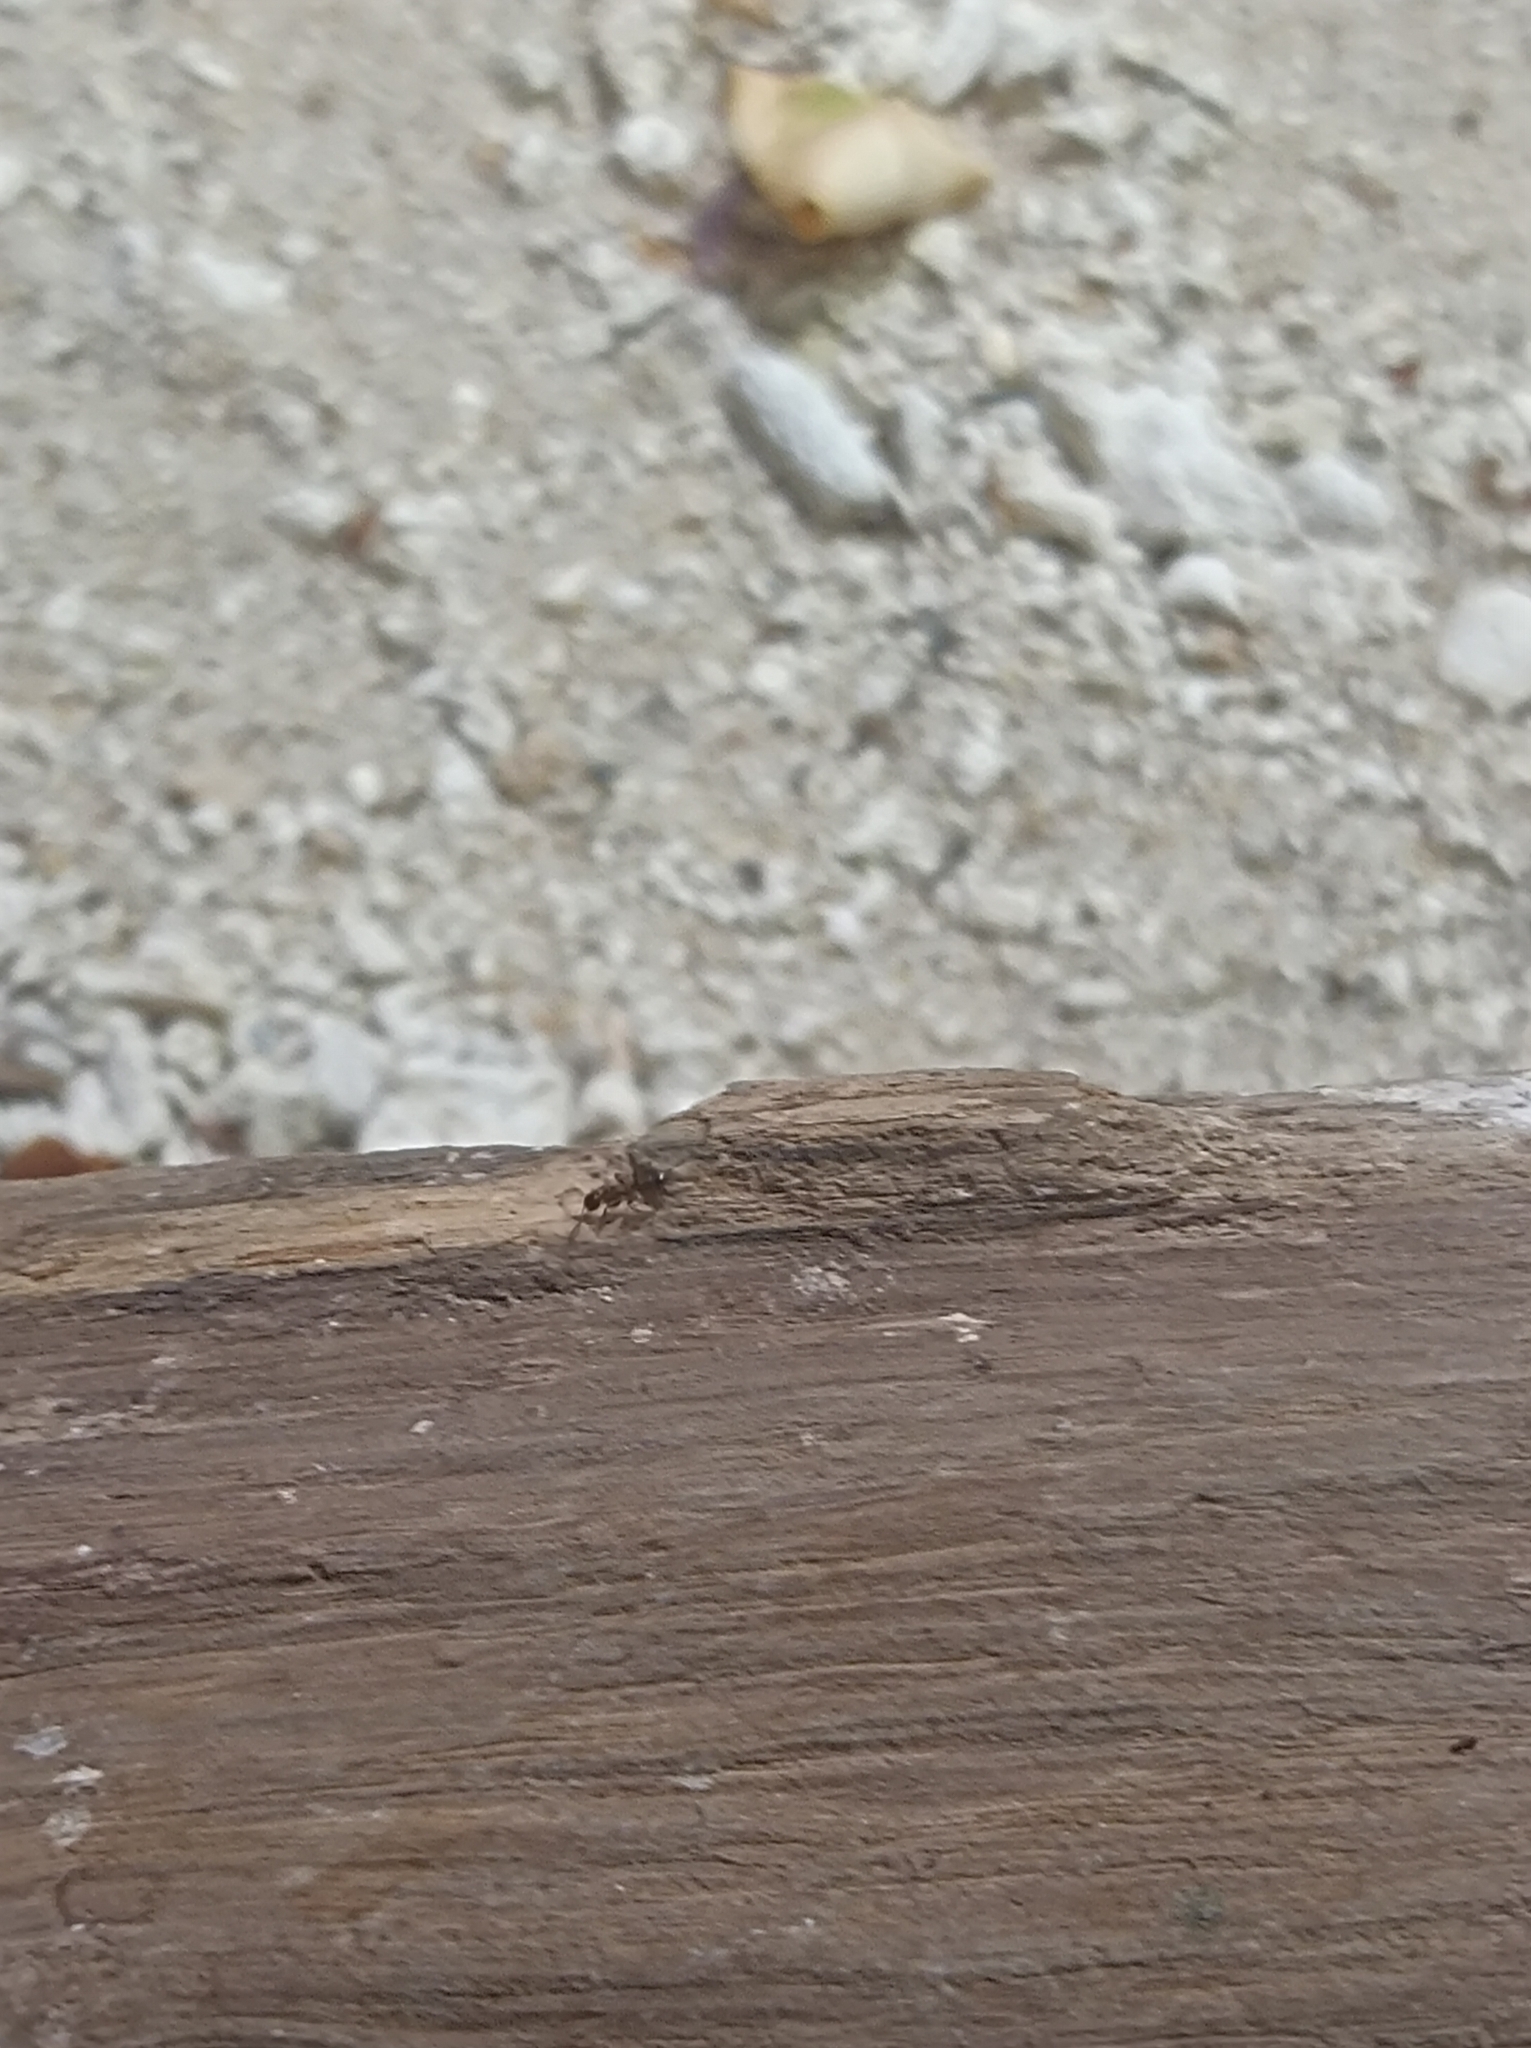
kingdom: Animalia
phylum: Arthropoda
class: Insecta
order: Hymenoptera
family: Formicidae
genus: Camponotus
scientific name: Camponotus truncatus
